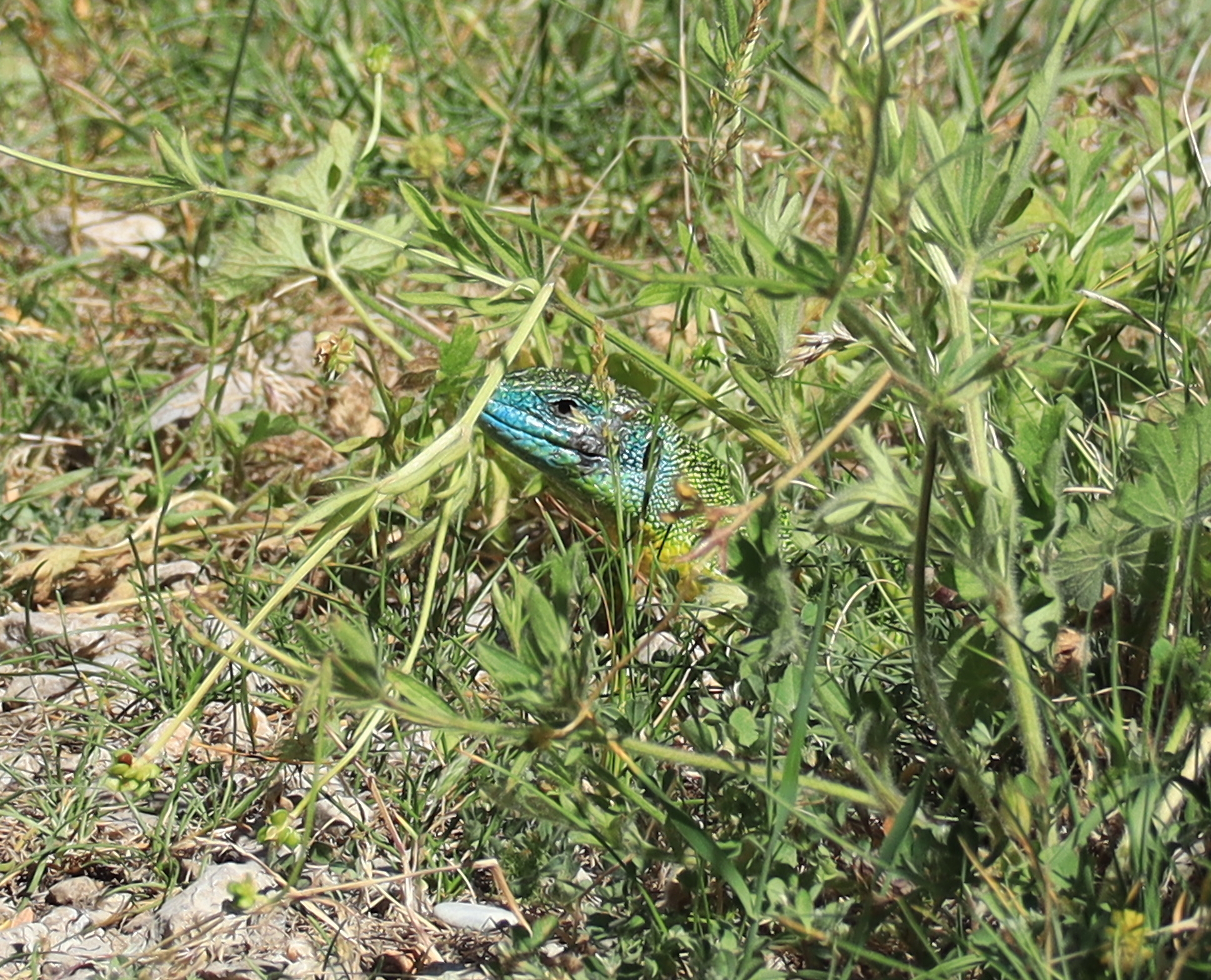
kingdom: Animalia
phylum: Chordata
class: Squamata
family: Lacertidae
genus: Lacerta
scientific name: Lacerta bilineata
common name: Western green lizard
